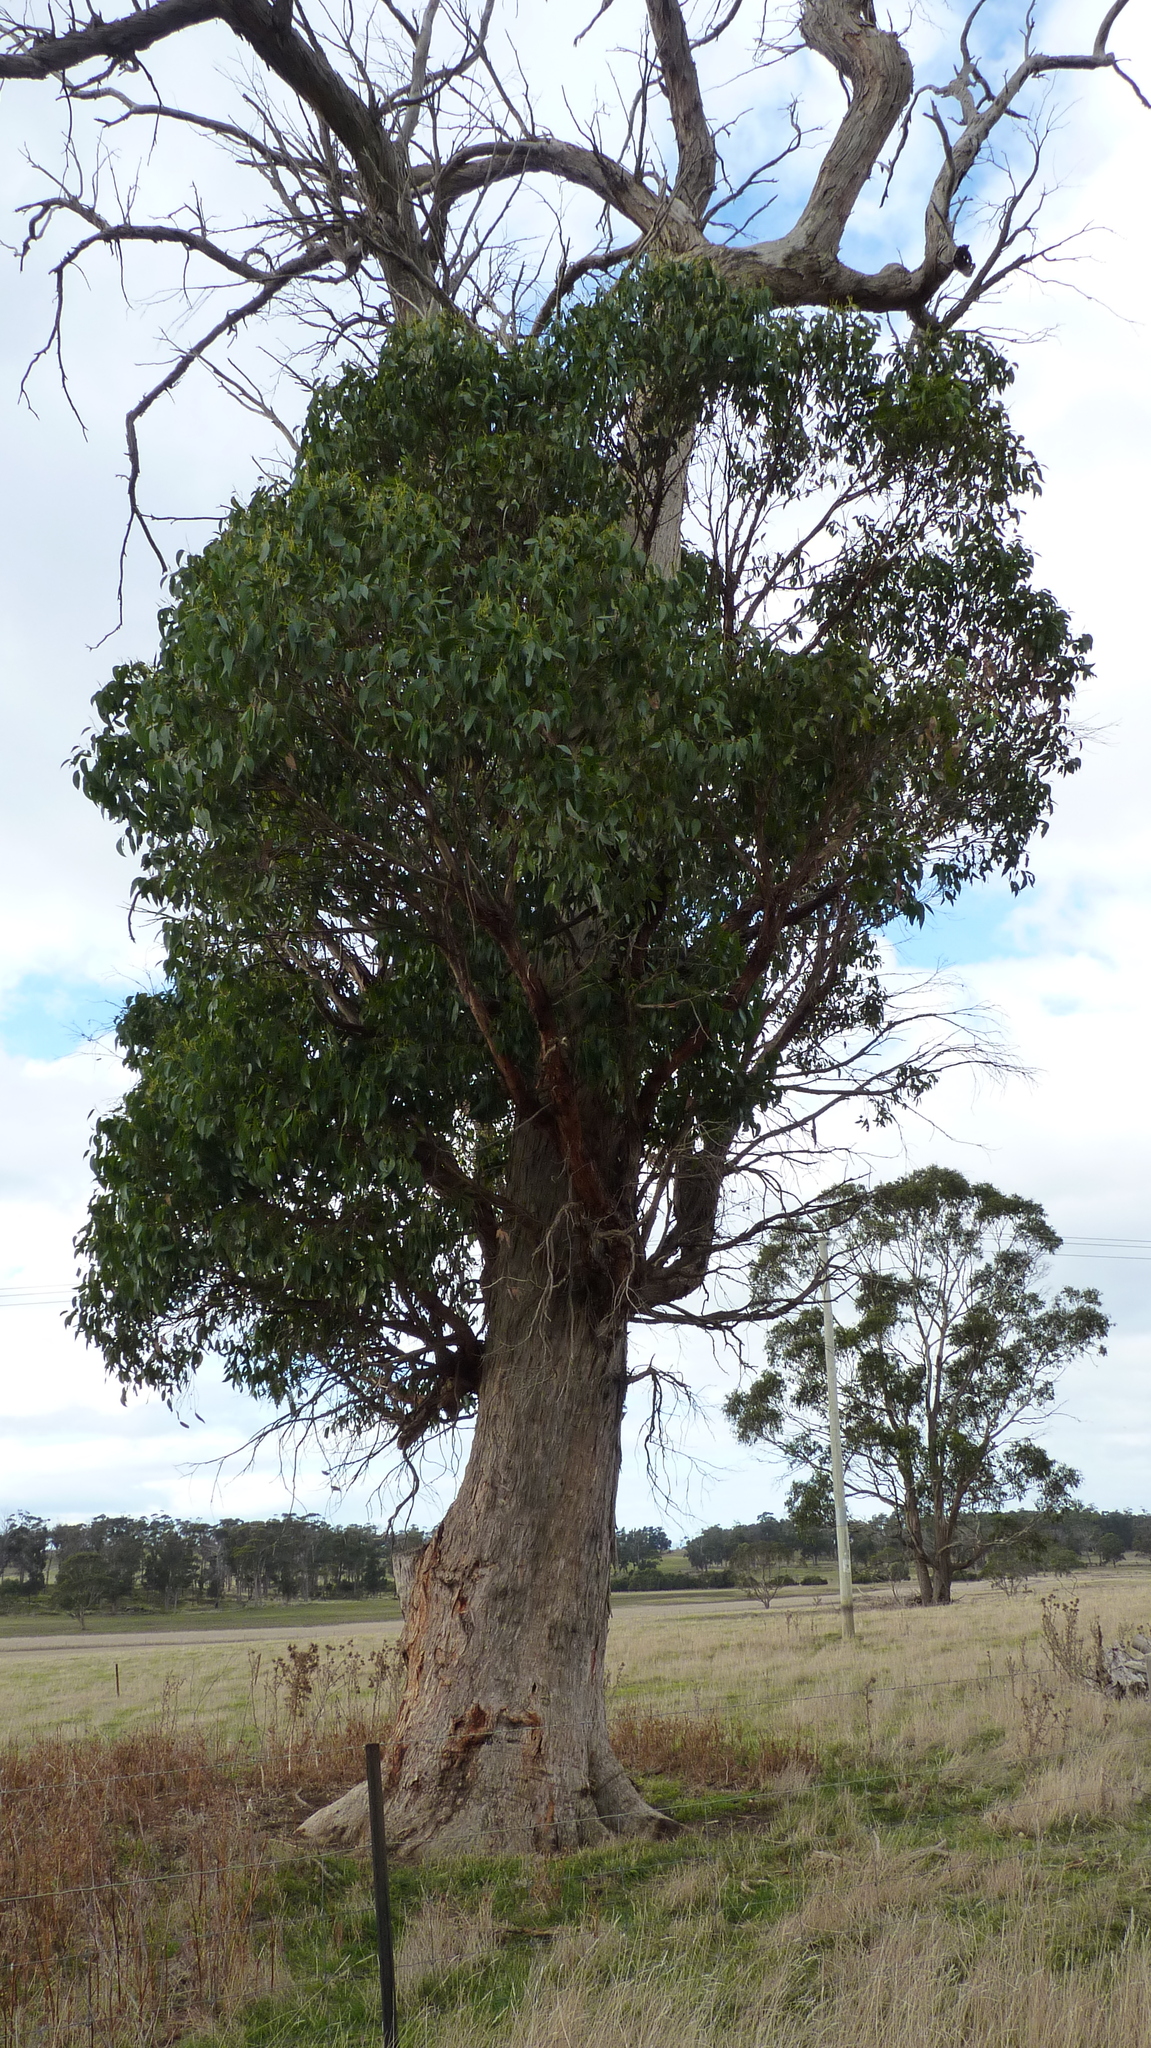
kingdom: Plantae
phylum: Tracheophyta
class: Magnoliopsida
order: Myrtales
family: Myrtaceae
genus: Eucalyptus
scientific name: Eucalyptus obliqua
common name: Messmate stringybark
